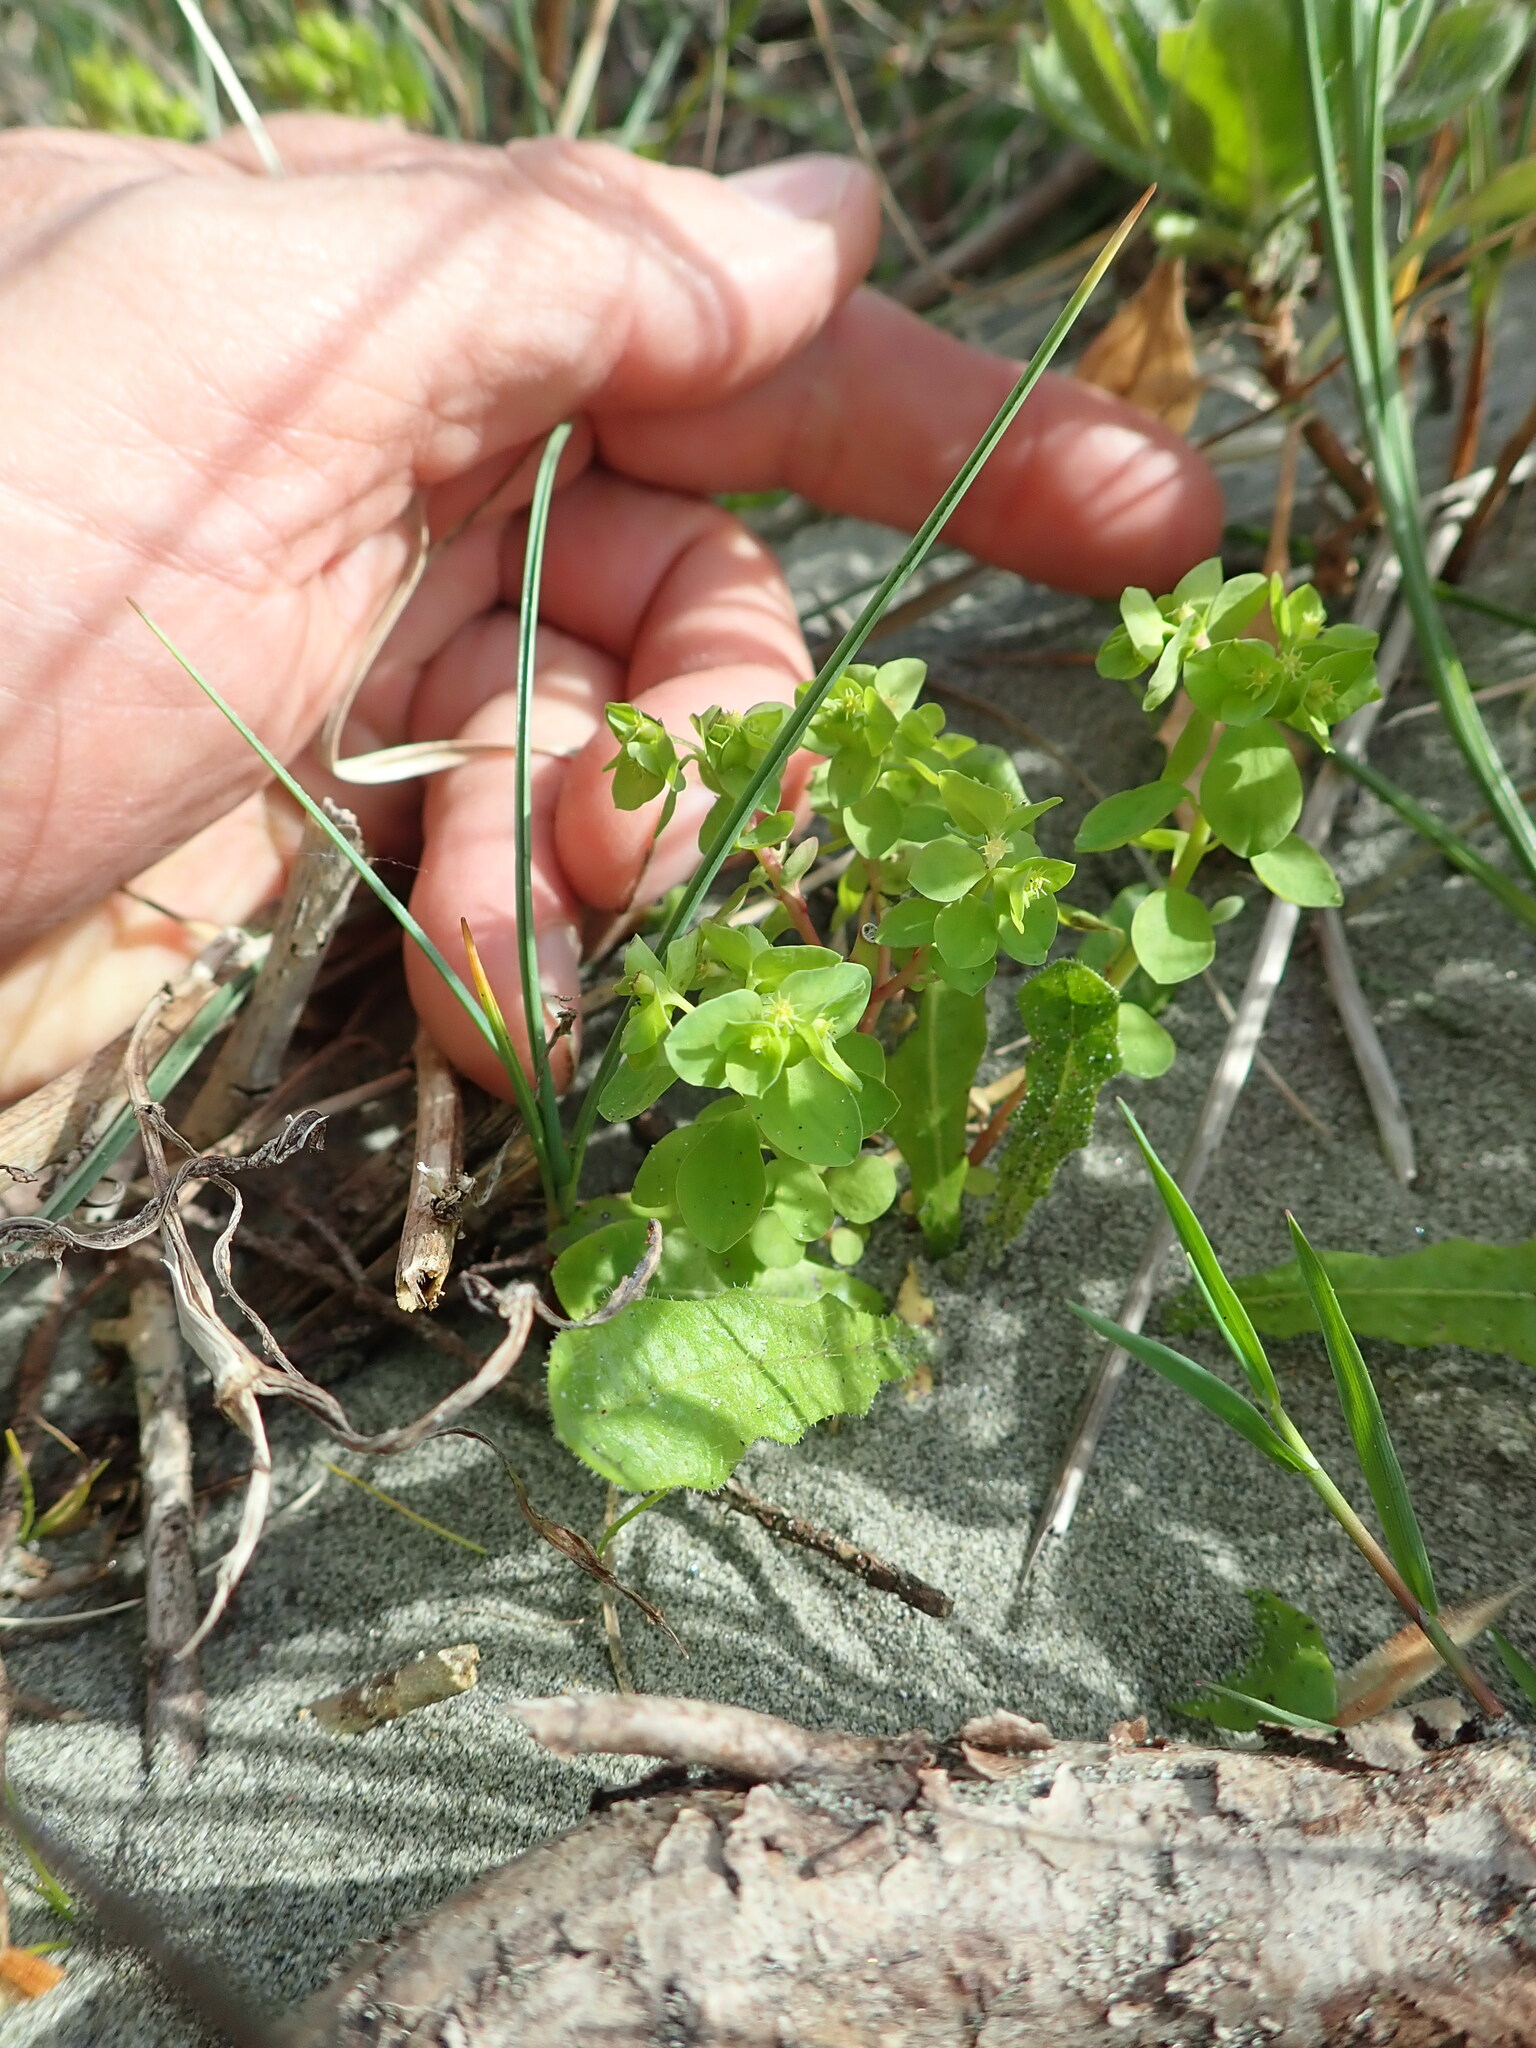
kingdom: Plantae
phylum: Tracheophyta
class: Magnoliopsida
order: Malpighiales
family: Euphorbiaceae
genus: Euphorbia
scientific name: Euphorbia peplus
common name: Petty spurge
